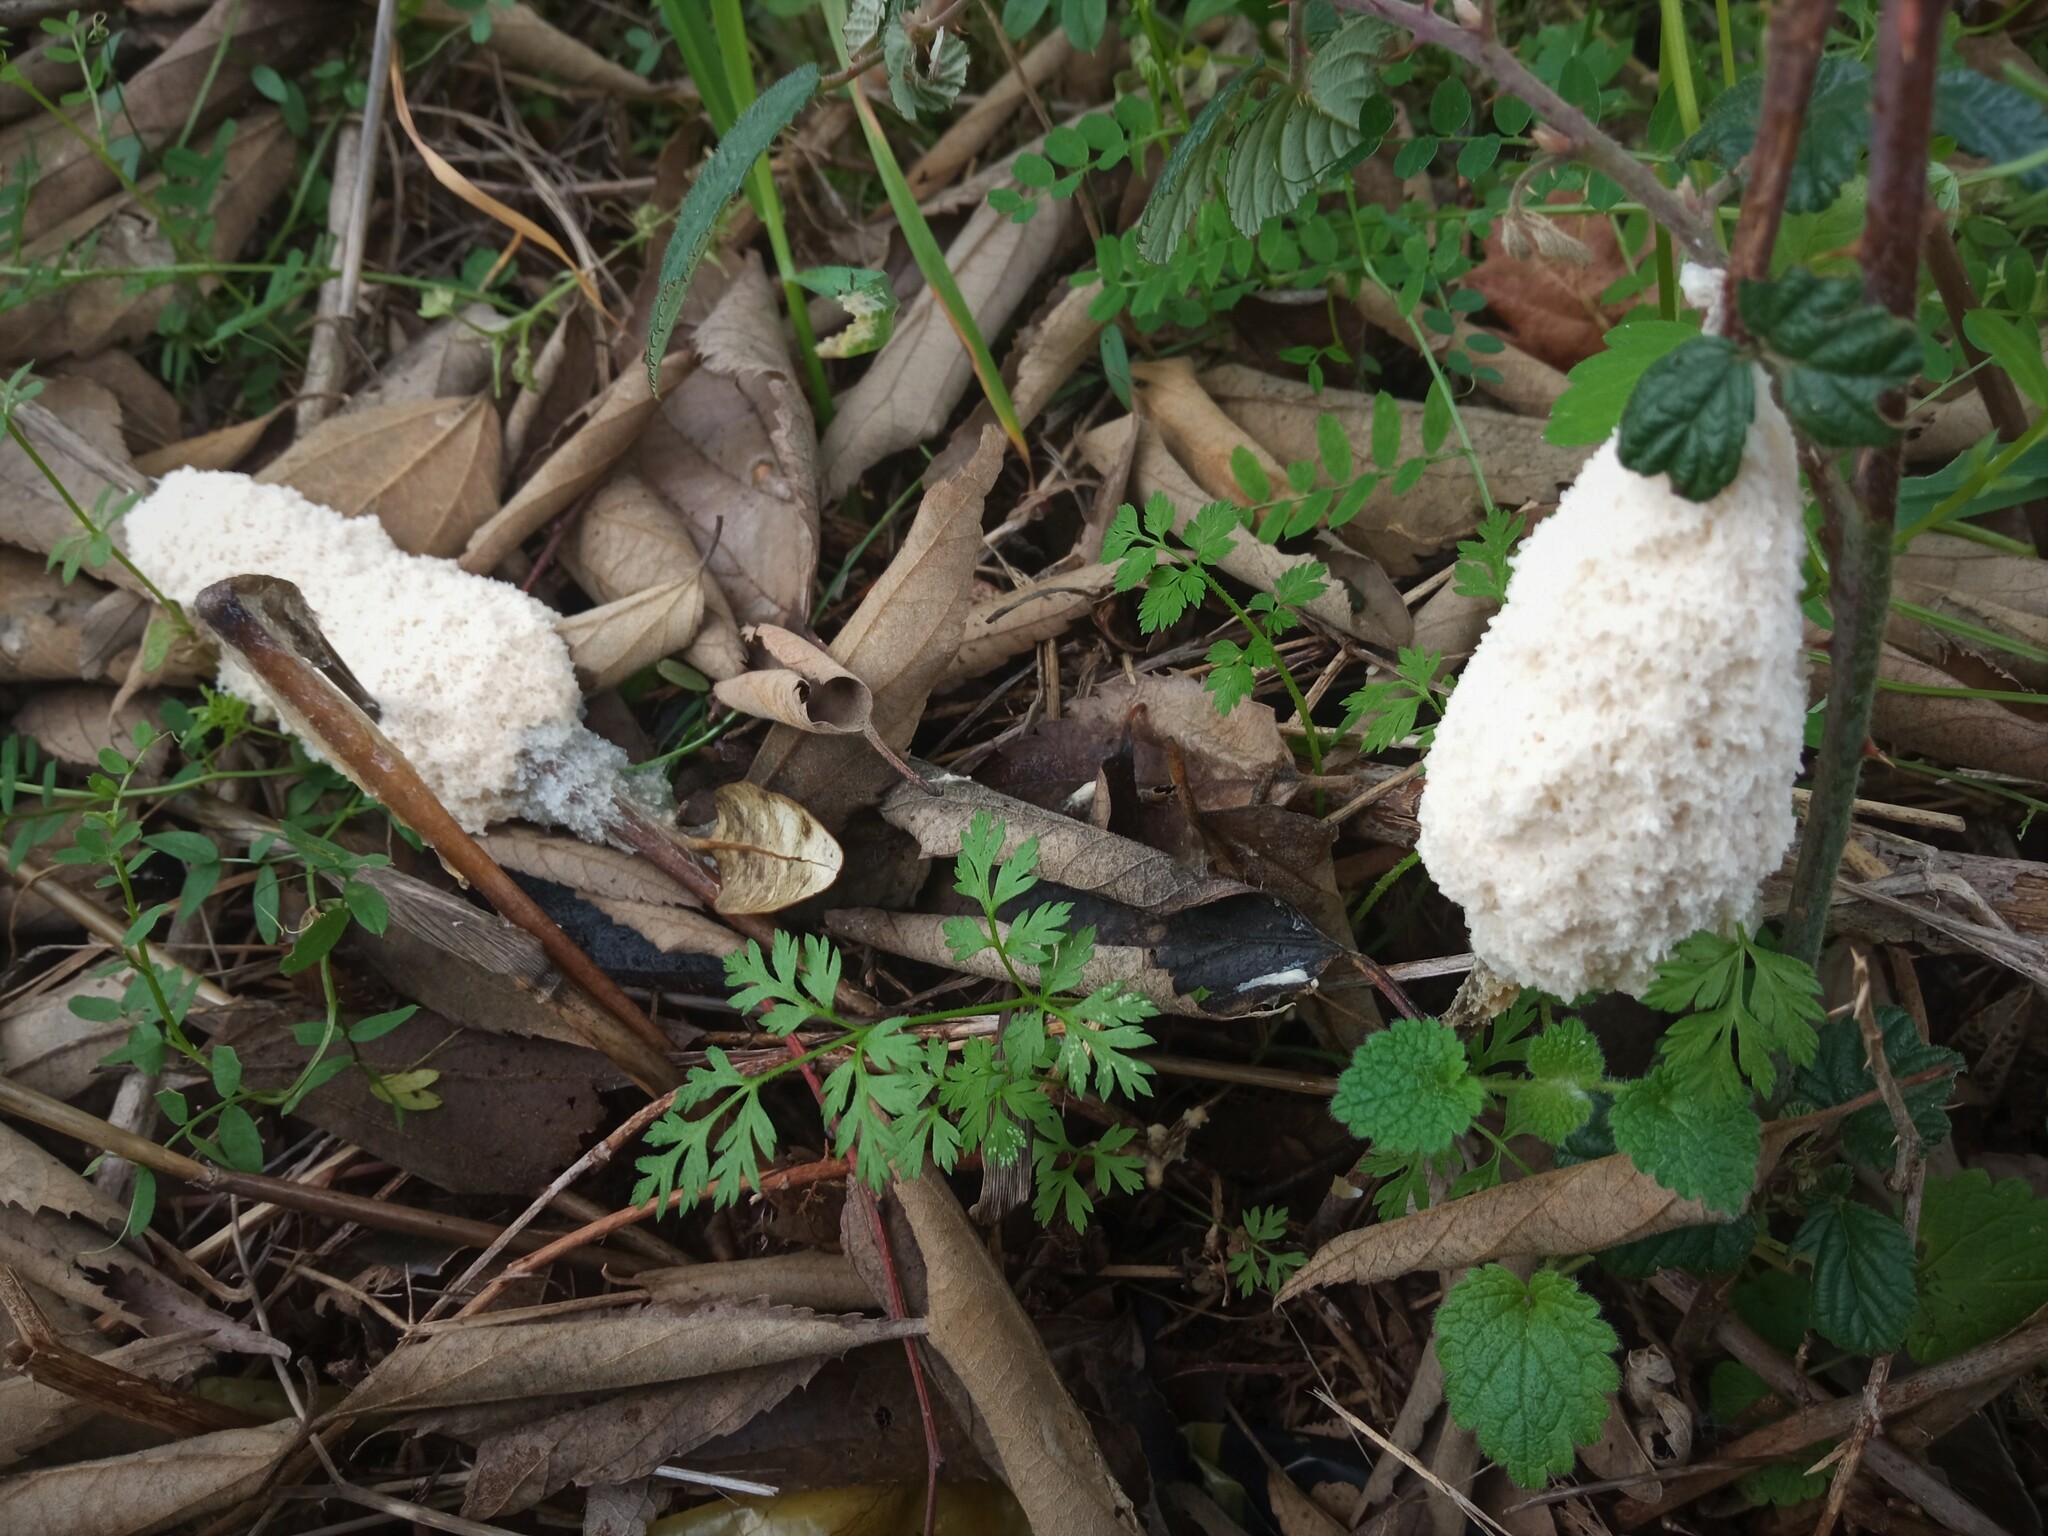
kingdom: Protozoa
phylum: Mycetozoa
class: Myxomycetes
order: Physarales
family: Physaraceae
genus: Didymium
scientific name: Didymium
